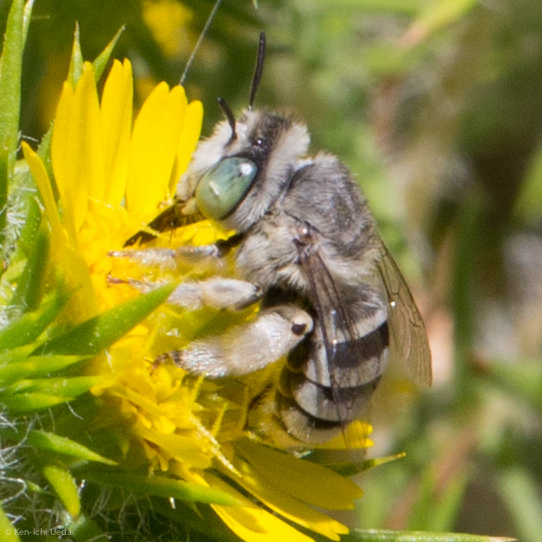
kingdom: Animalia
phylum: Arthropoda
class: Insecta
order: Hymenoptera
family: Apidae
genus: Anthophora
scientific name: Anthophora curta
